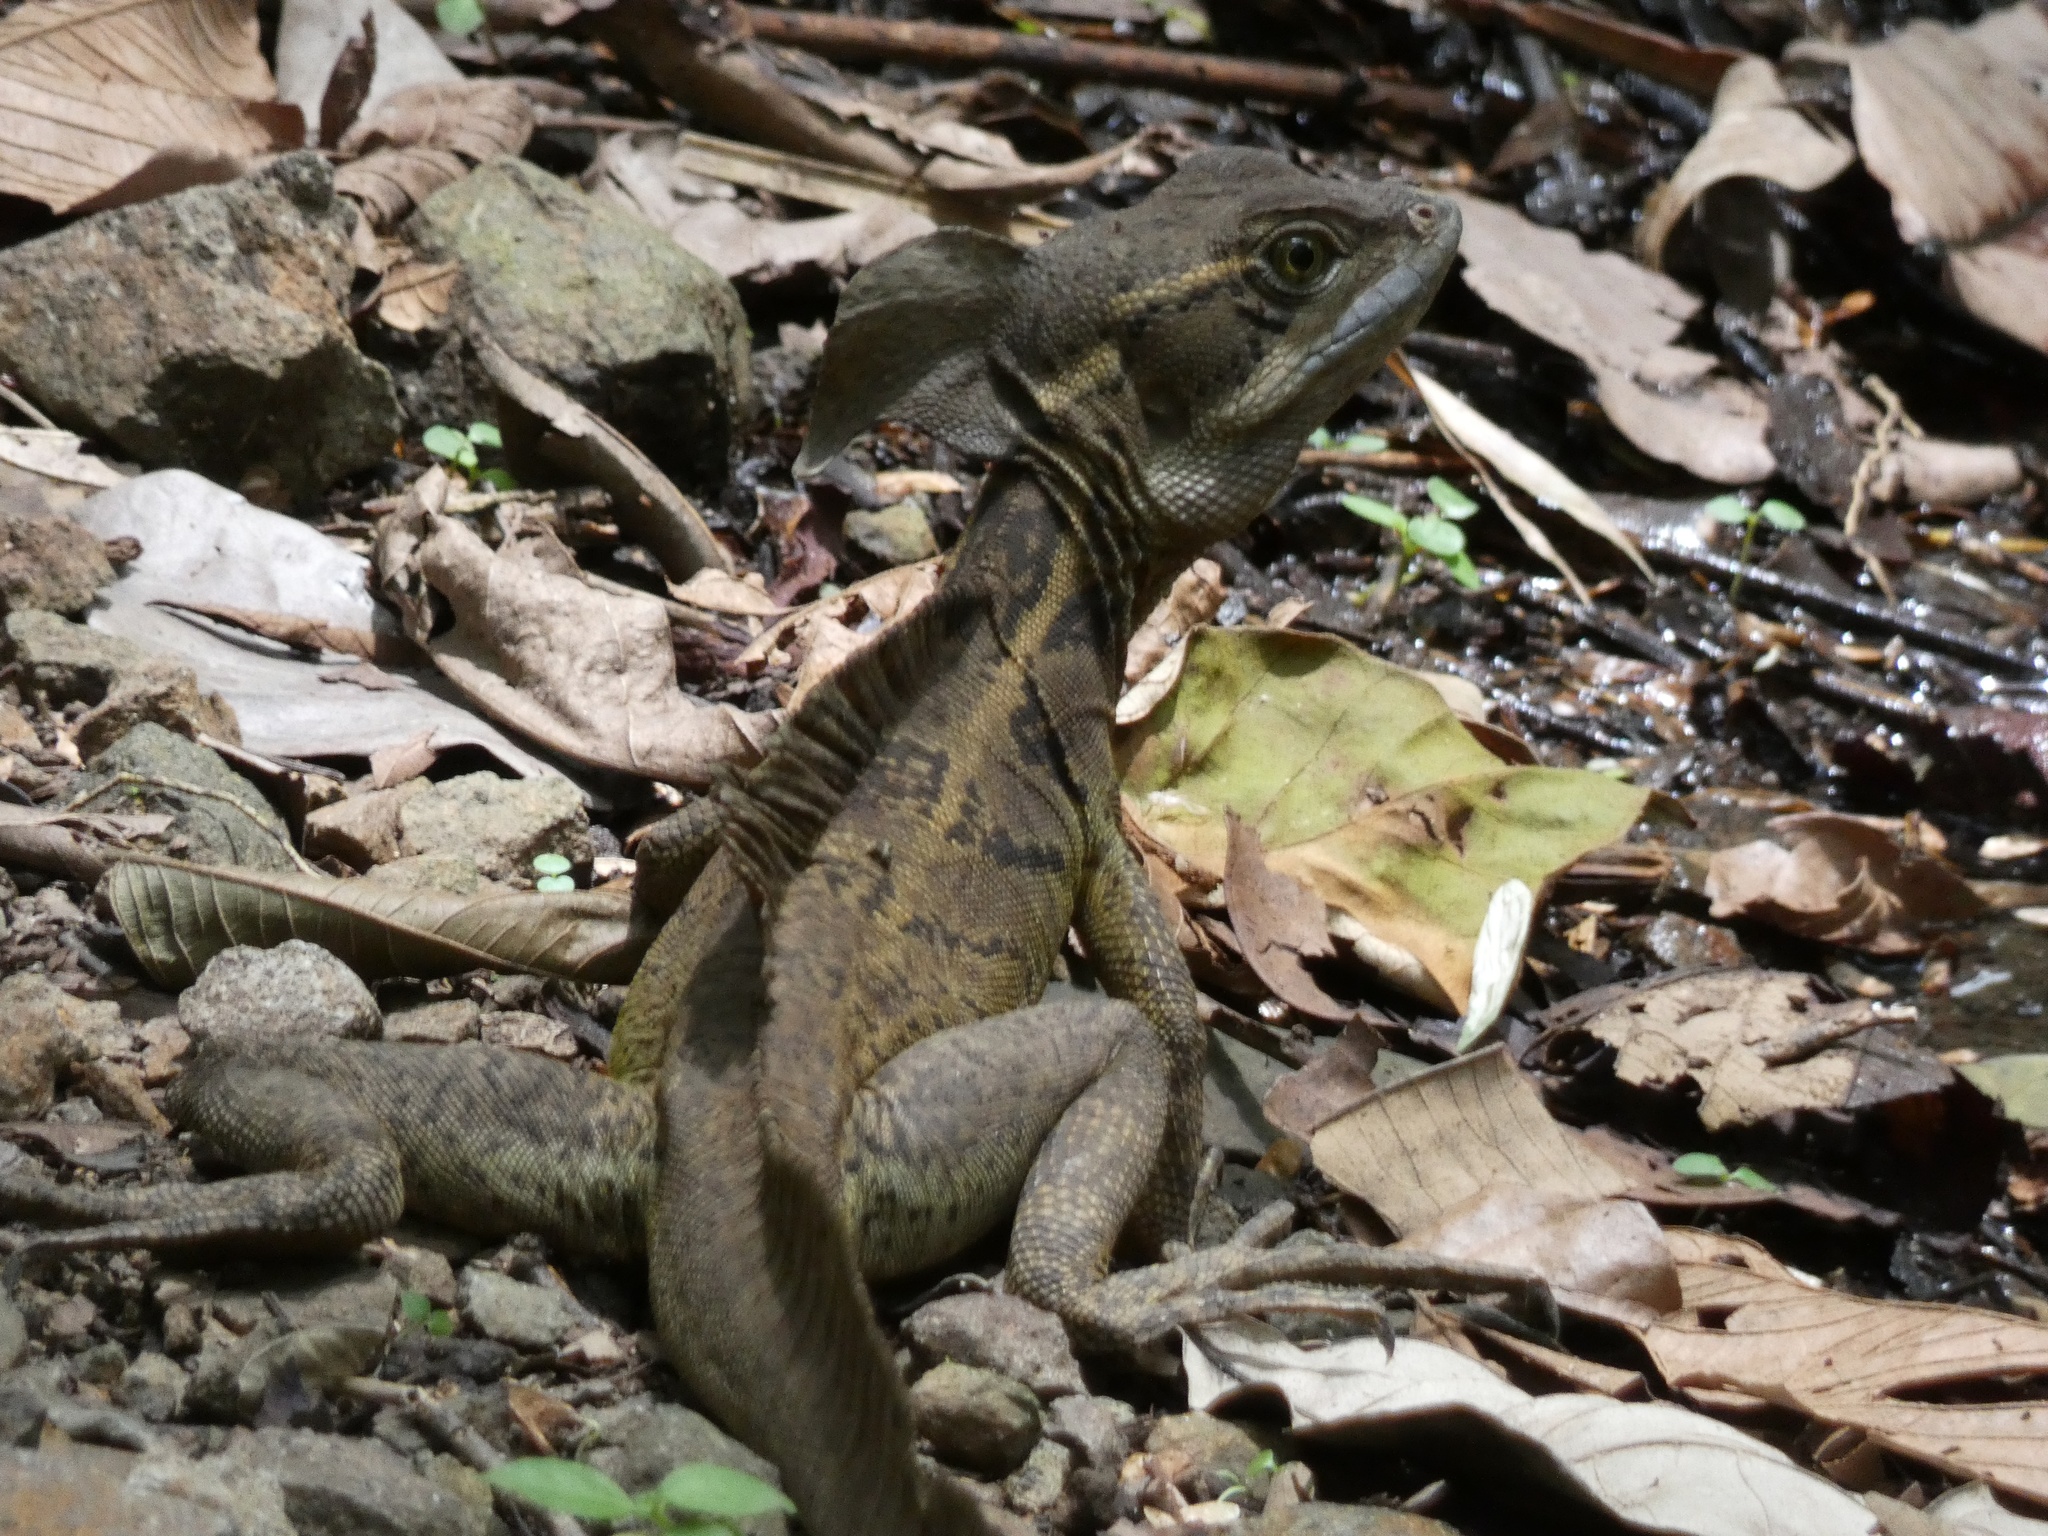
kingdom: Animalia
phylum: Chordata
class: Squamata
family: Corytophanidae
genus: Basiliscus
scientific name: Basiliscus basiliscus
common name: Common basilisk
